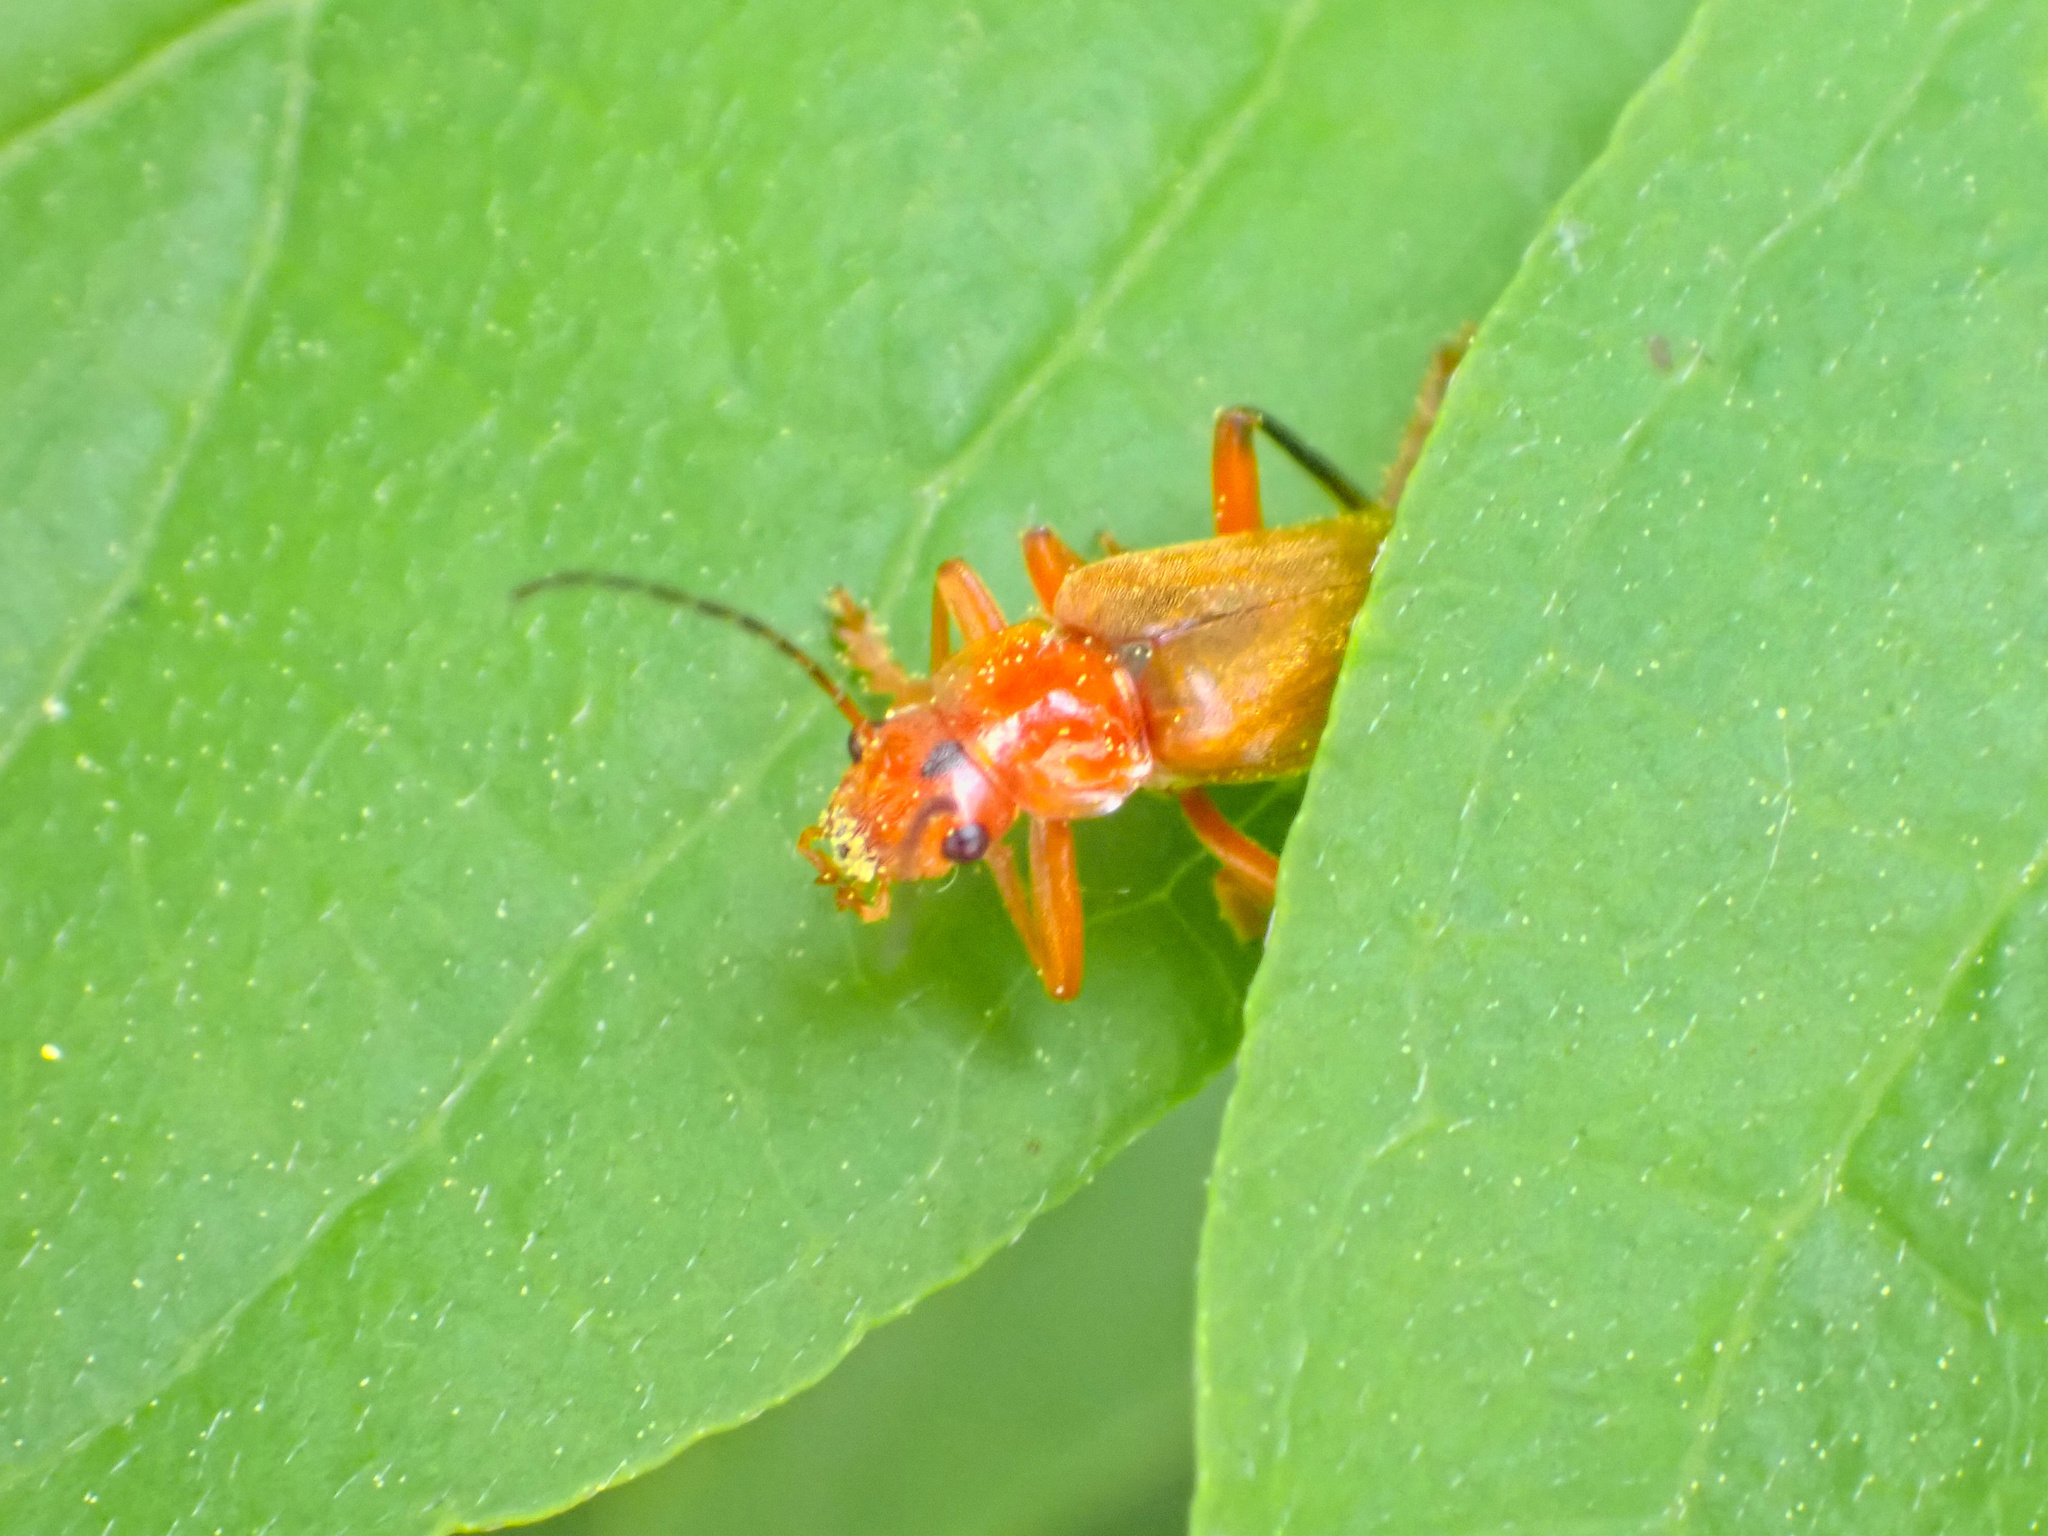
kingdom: Animalia
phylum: Arthropoda
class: Insecta
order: Coleoptera
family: Cantharidae
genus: Cantharis
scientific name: Cantharis livida
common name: Livid soldier beetle
